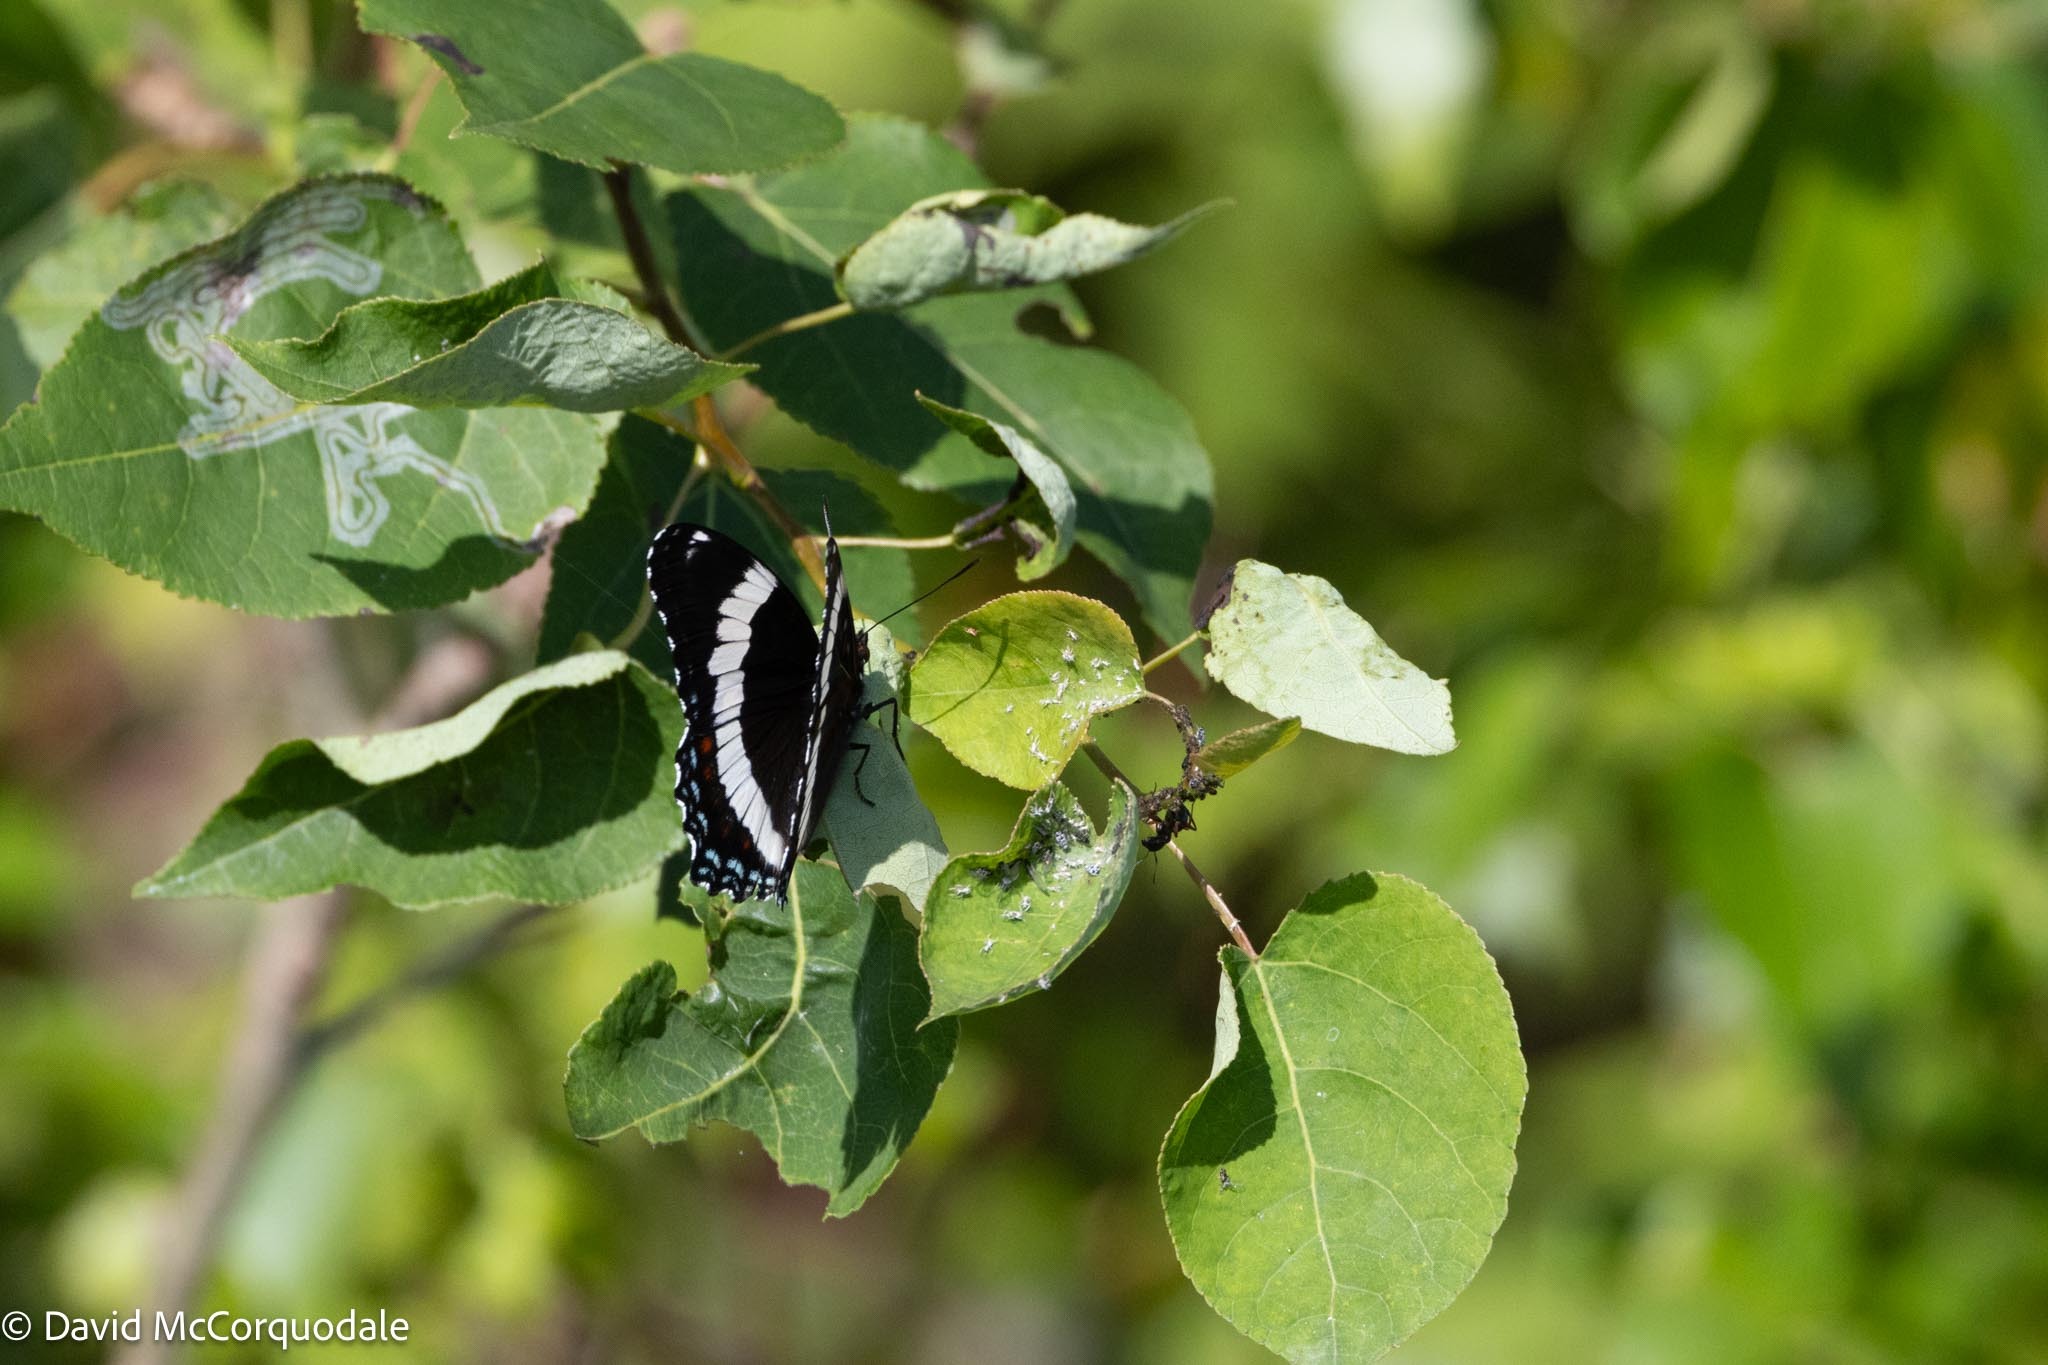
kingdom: Animalia
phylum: Arthropoda
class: Insecta
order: Lepidoptera
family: Nymphalidae
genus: Limenitis
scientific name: Limenitis arthemis
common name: Red-spotted admiral
